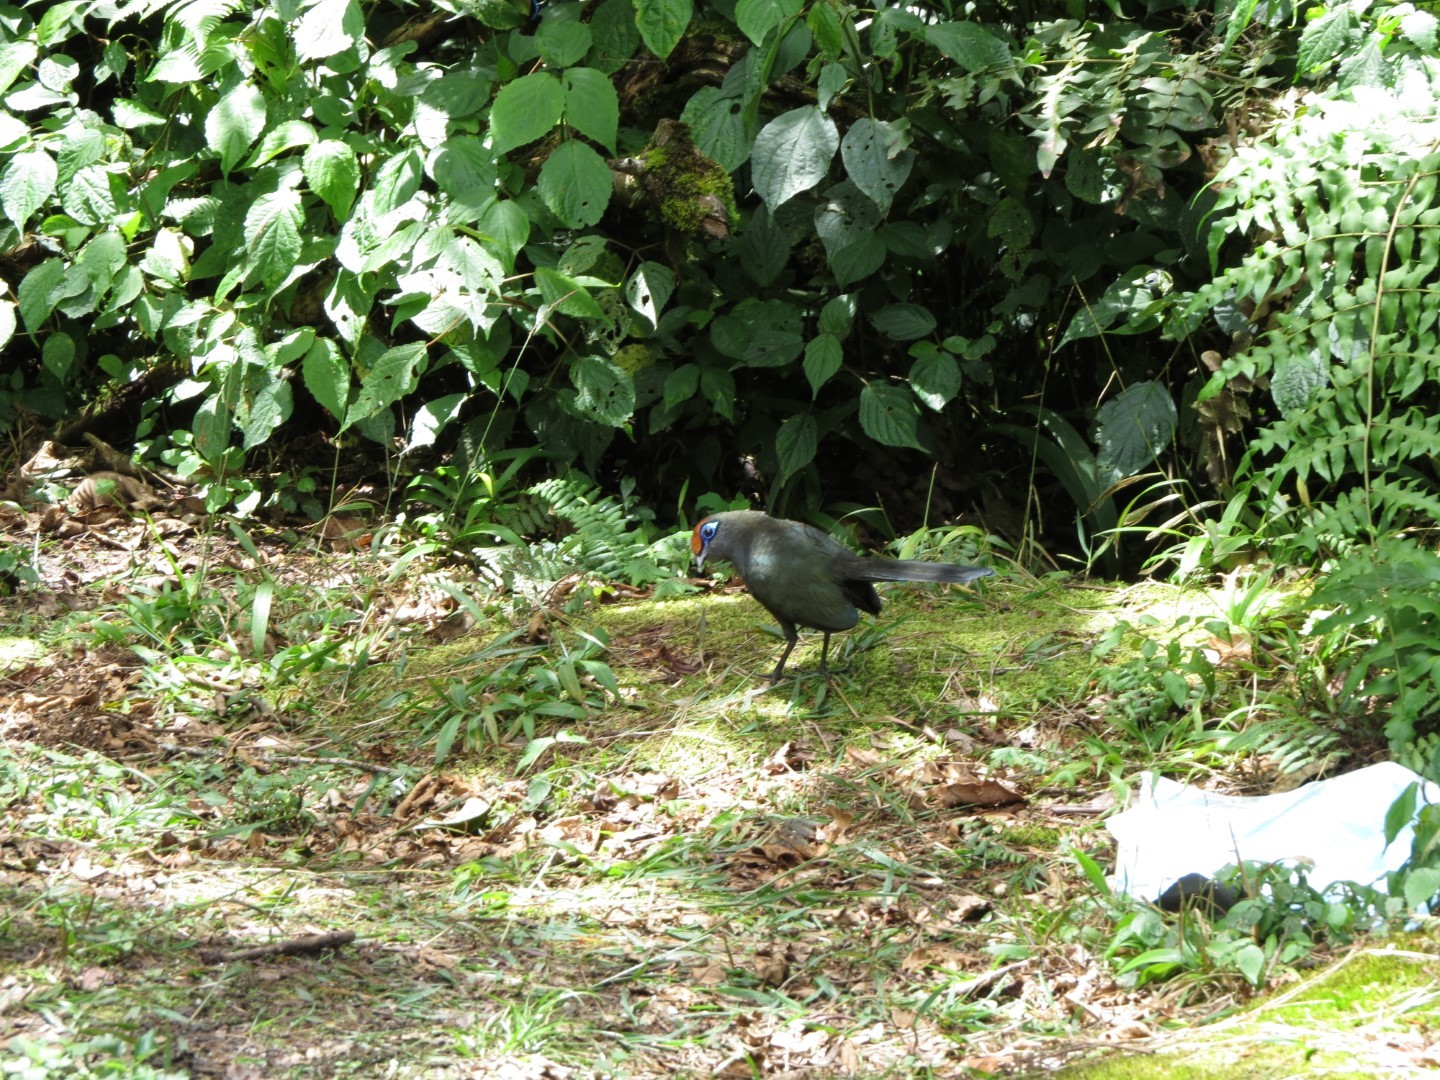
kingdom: Animalia
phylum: Chordata
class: Aves
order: Cuculiformes
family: Cuculidae
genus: Coua
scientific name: Coua reynaudii
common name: Red-fronted coua
